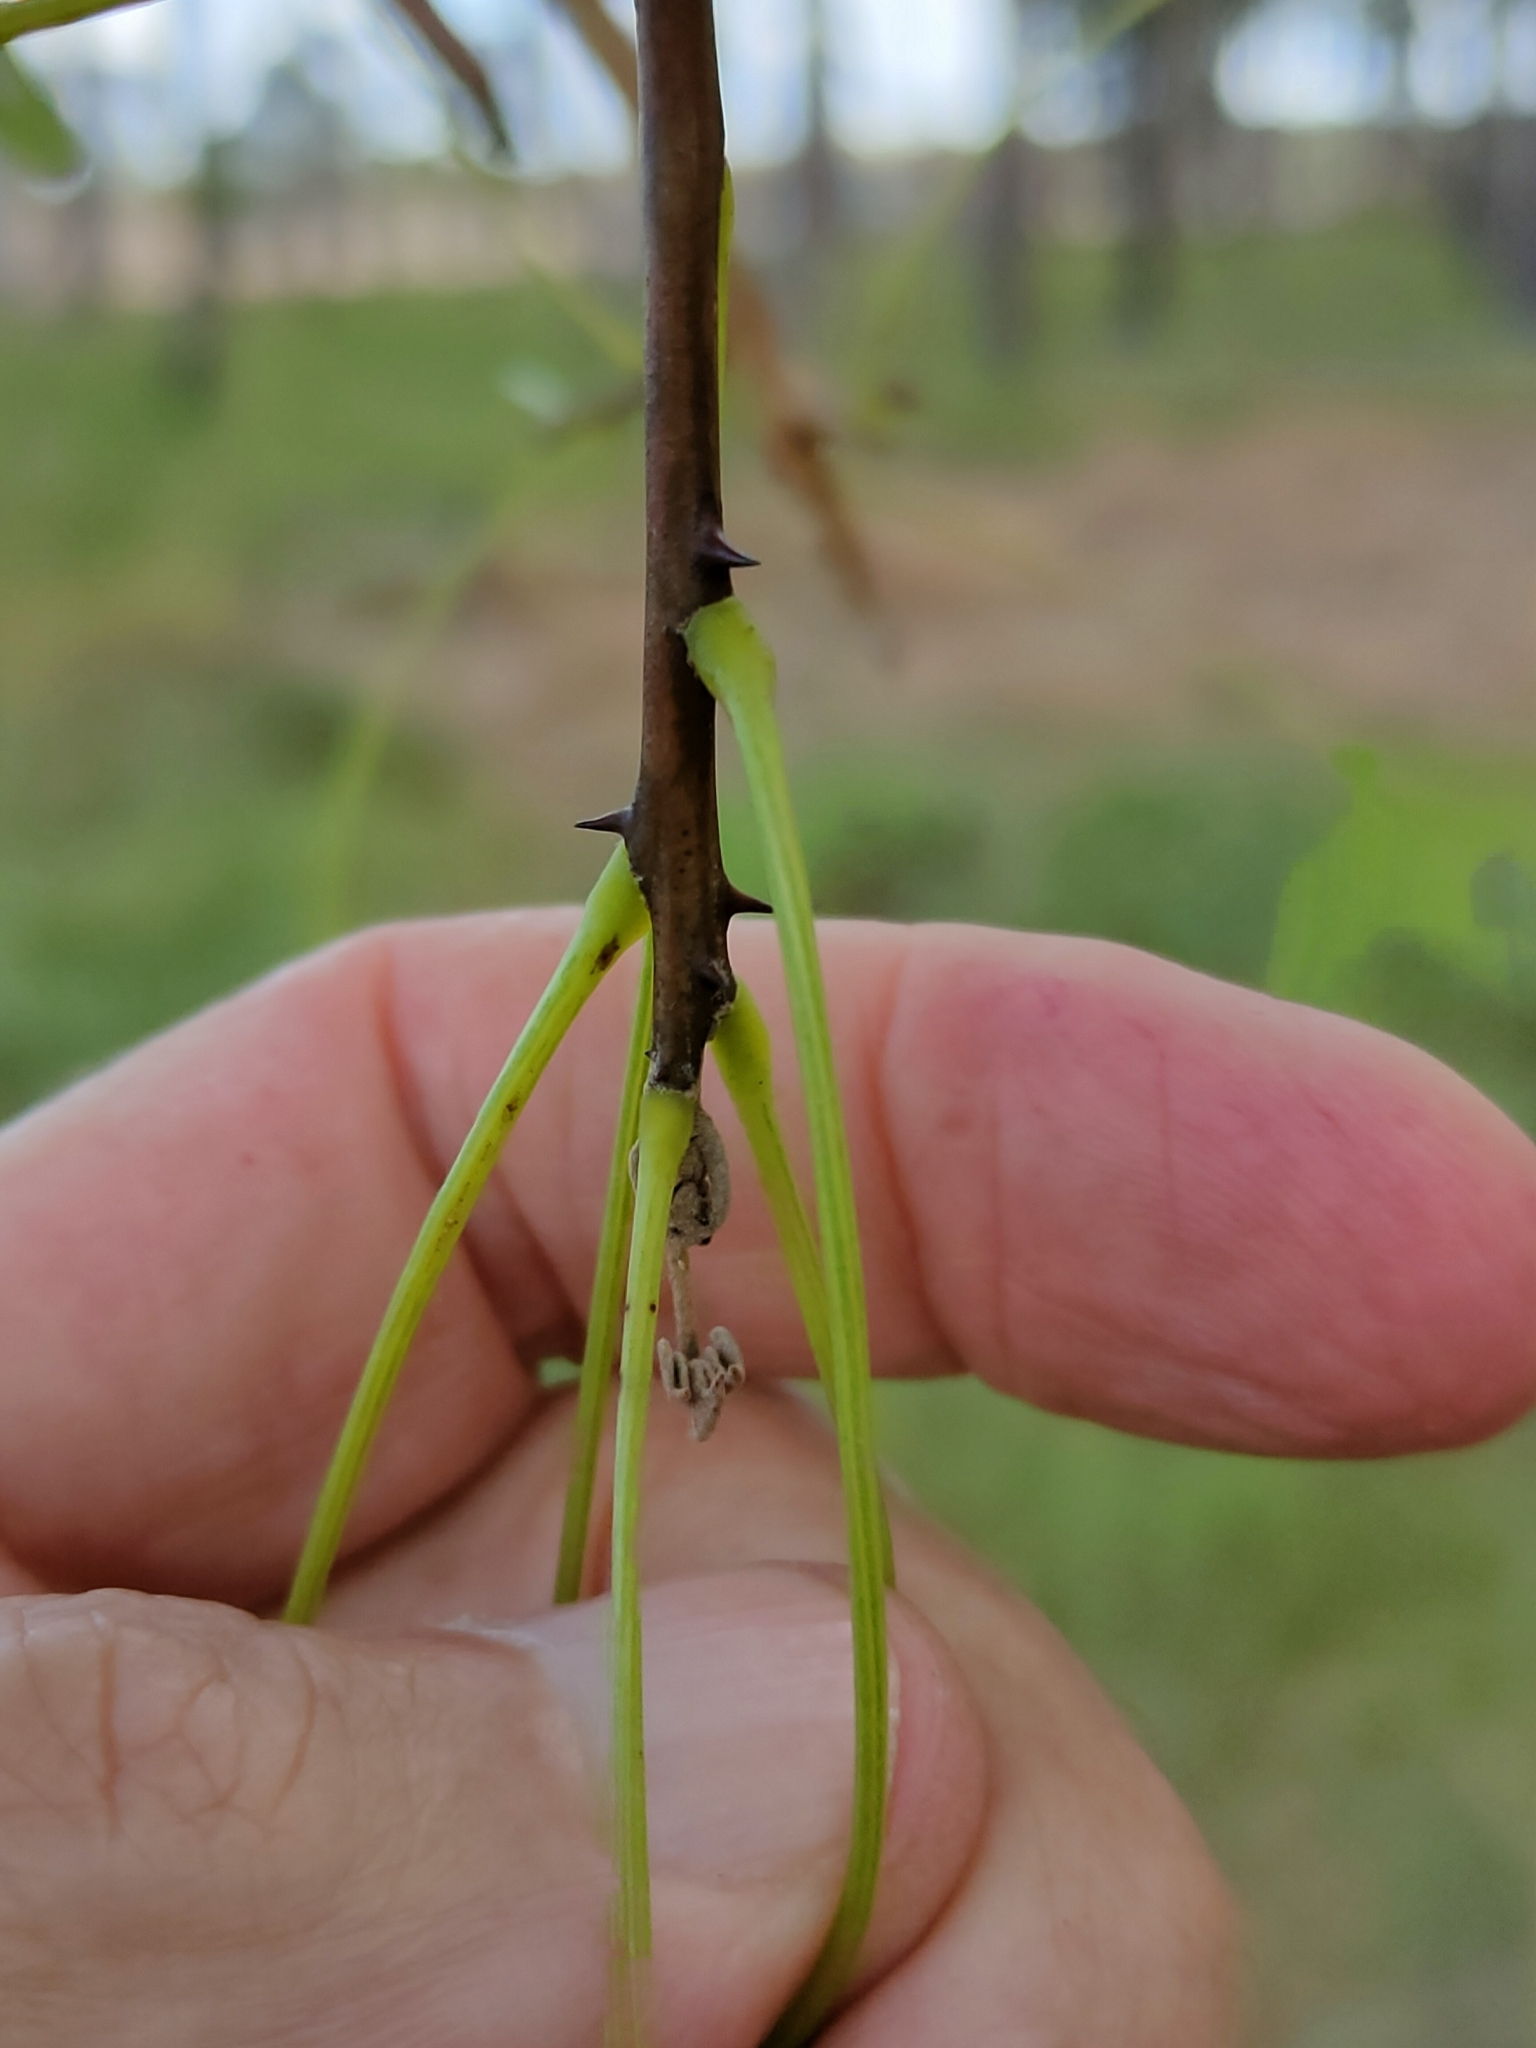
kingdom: Plantae
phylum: Tracheophyta
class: Magnoliopsida
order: Fabales
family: Fabaceae
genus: Erythrina
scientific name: Erythrina vespertilio
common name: Bat-wing coral tree
